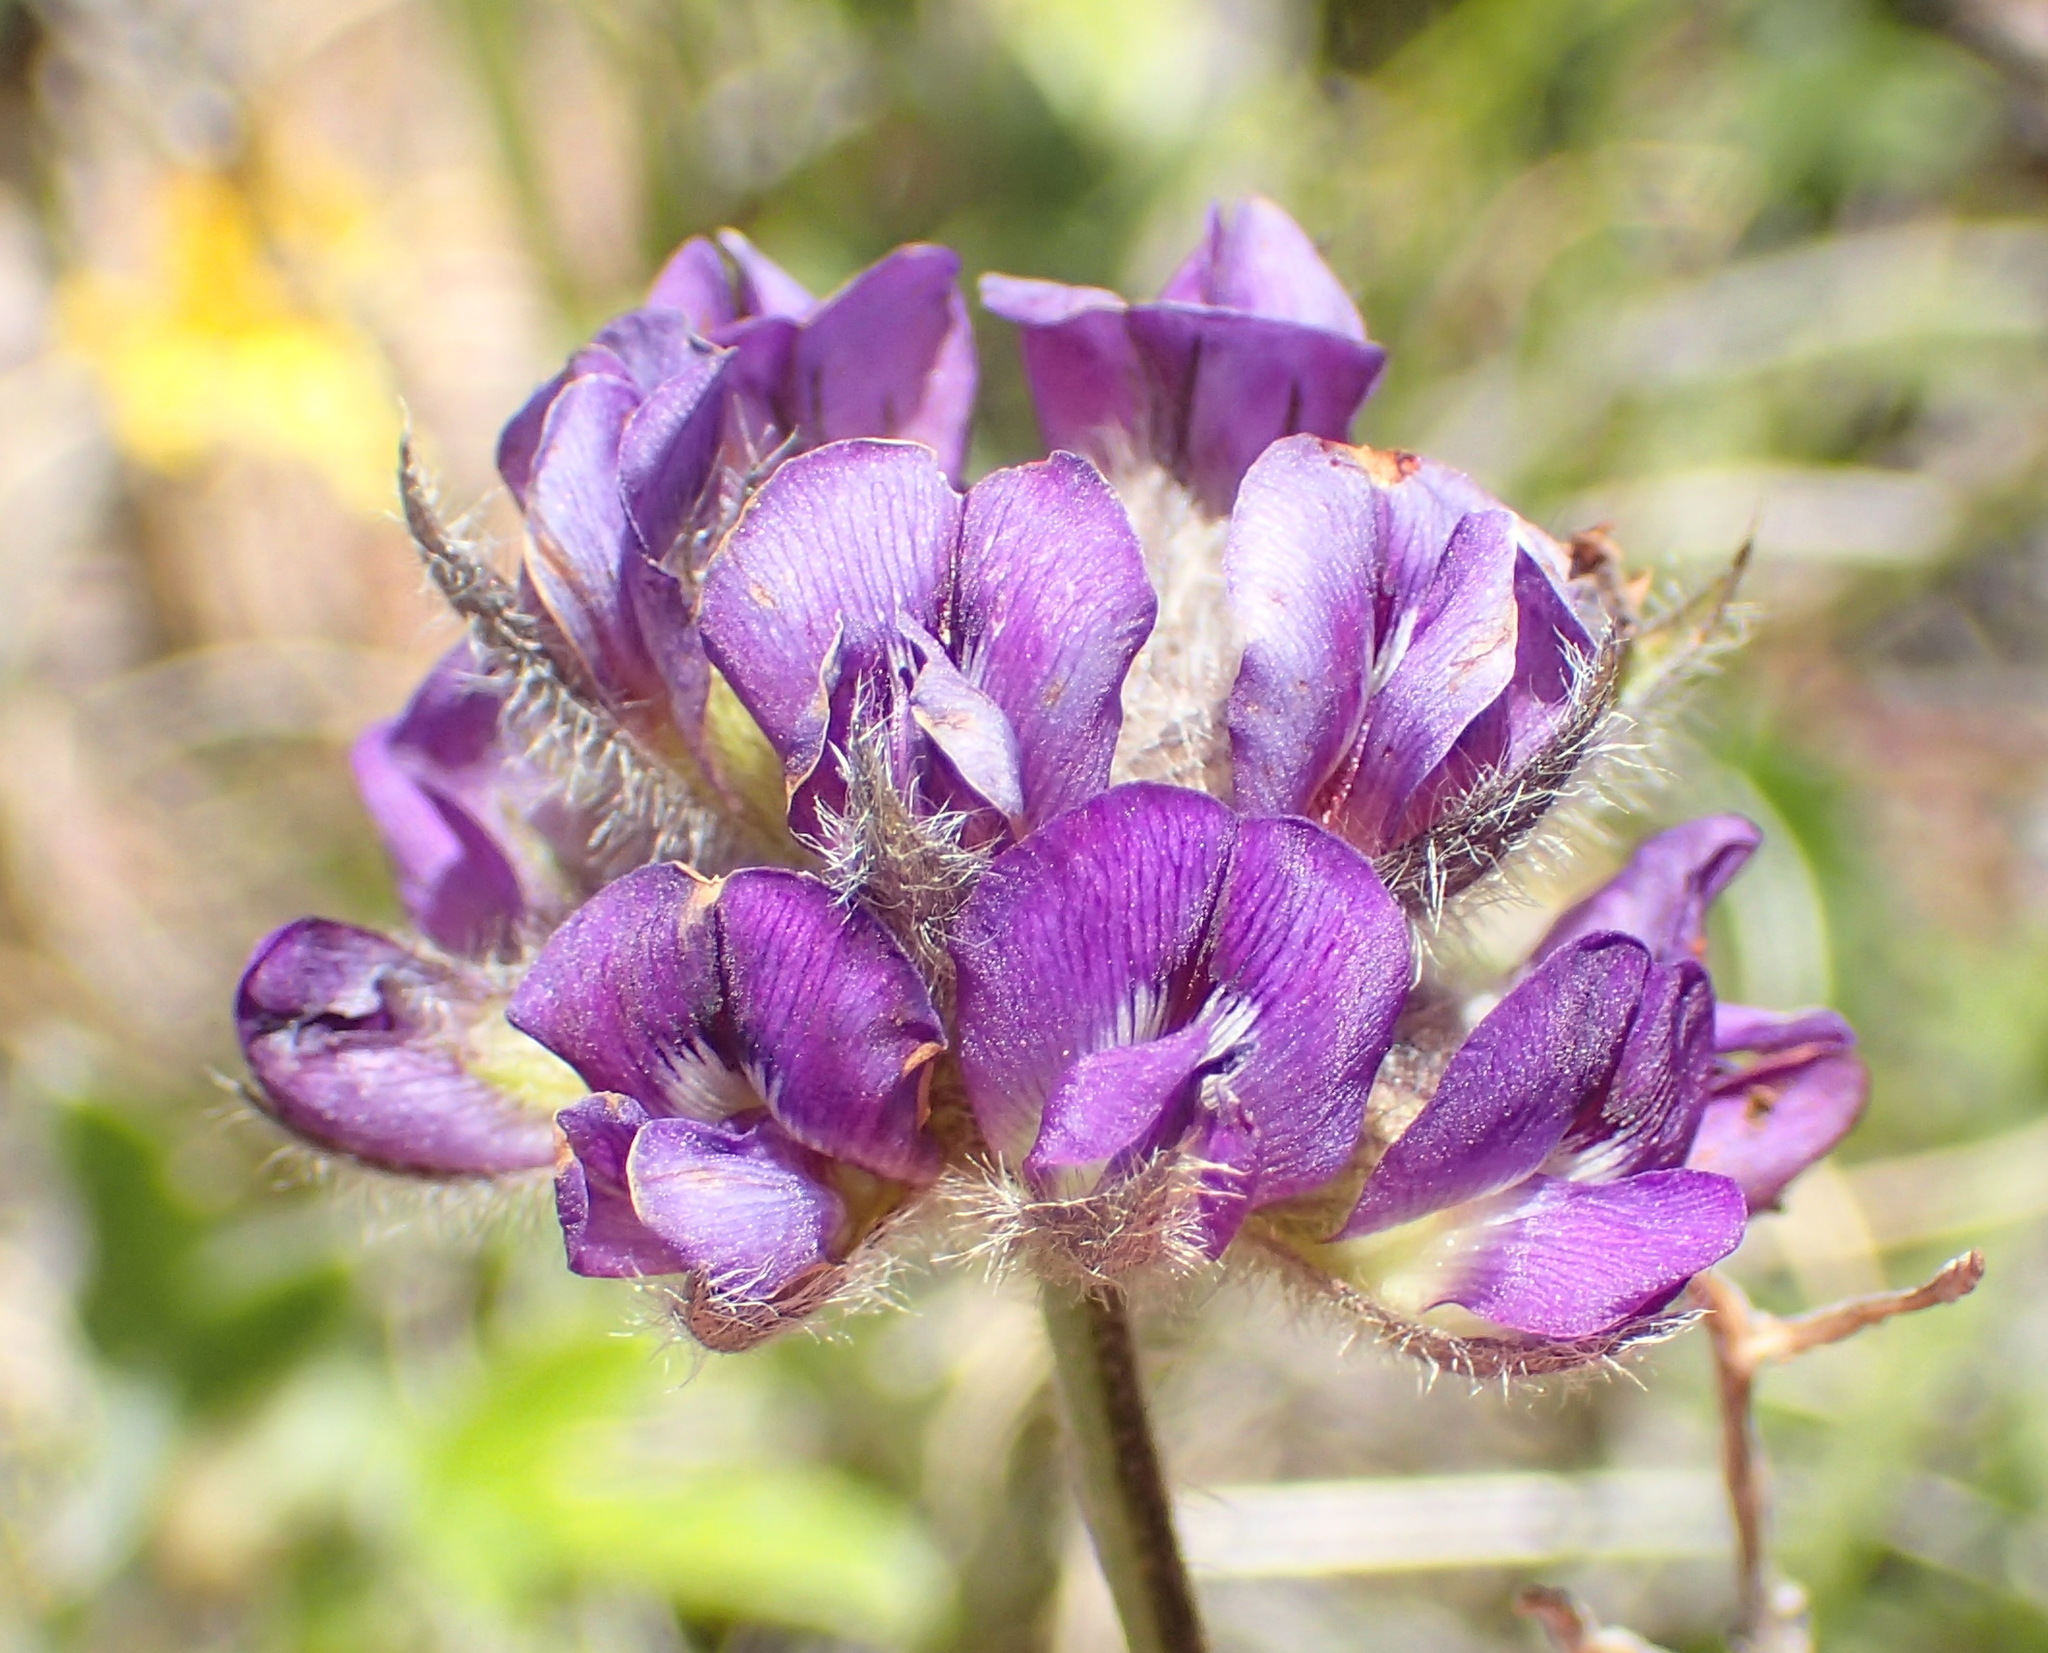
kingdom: Plantae
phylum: Tracheophyta
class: Magnoliopsida
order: Fabales
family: Fabaceae
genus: Psoralea
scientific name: Psoralea swartbergensis
